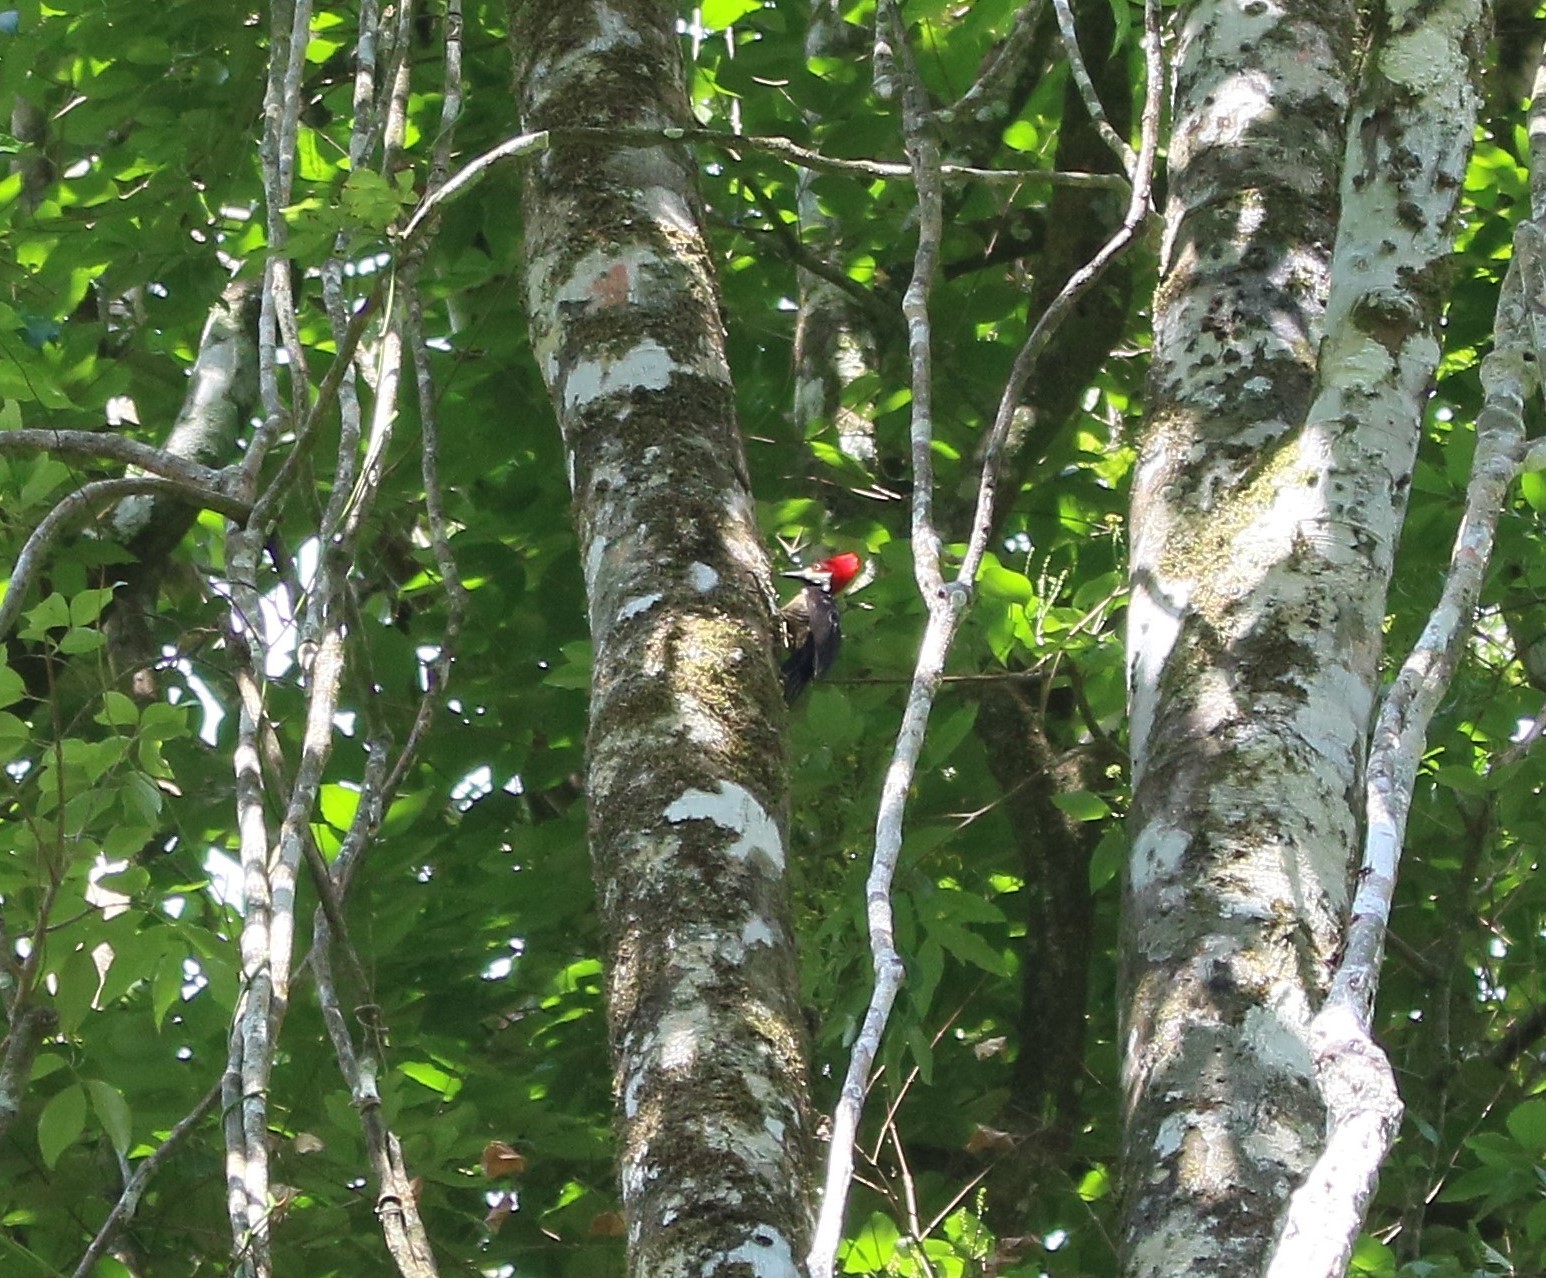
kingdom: Animalia
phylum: Chordata
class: Aves
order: Piciformes
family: Picidae
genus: Campephilus
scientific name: Campephilus melanoleucos
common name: Crimson-crested woodpecker
